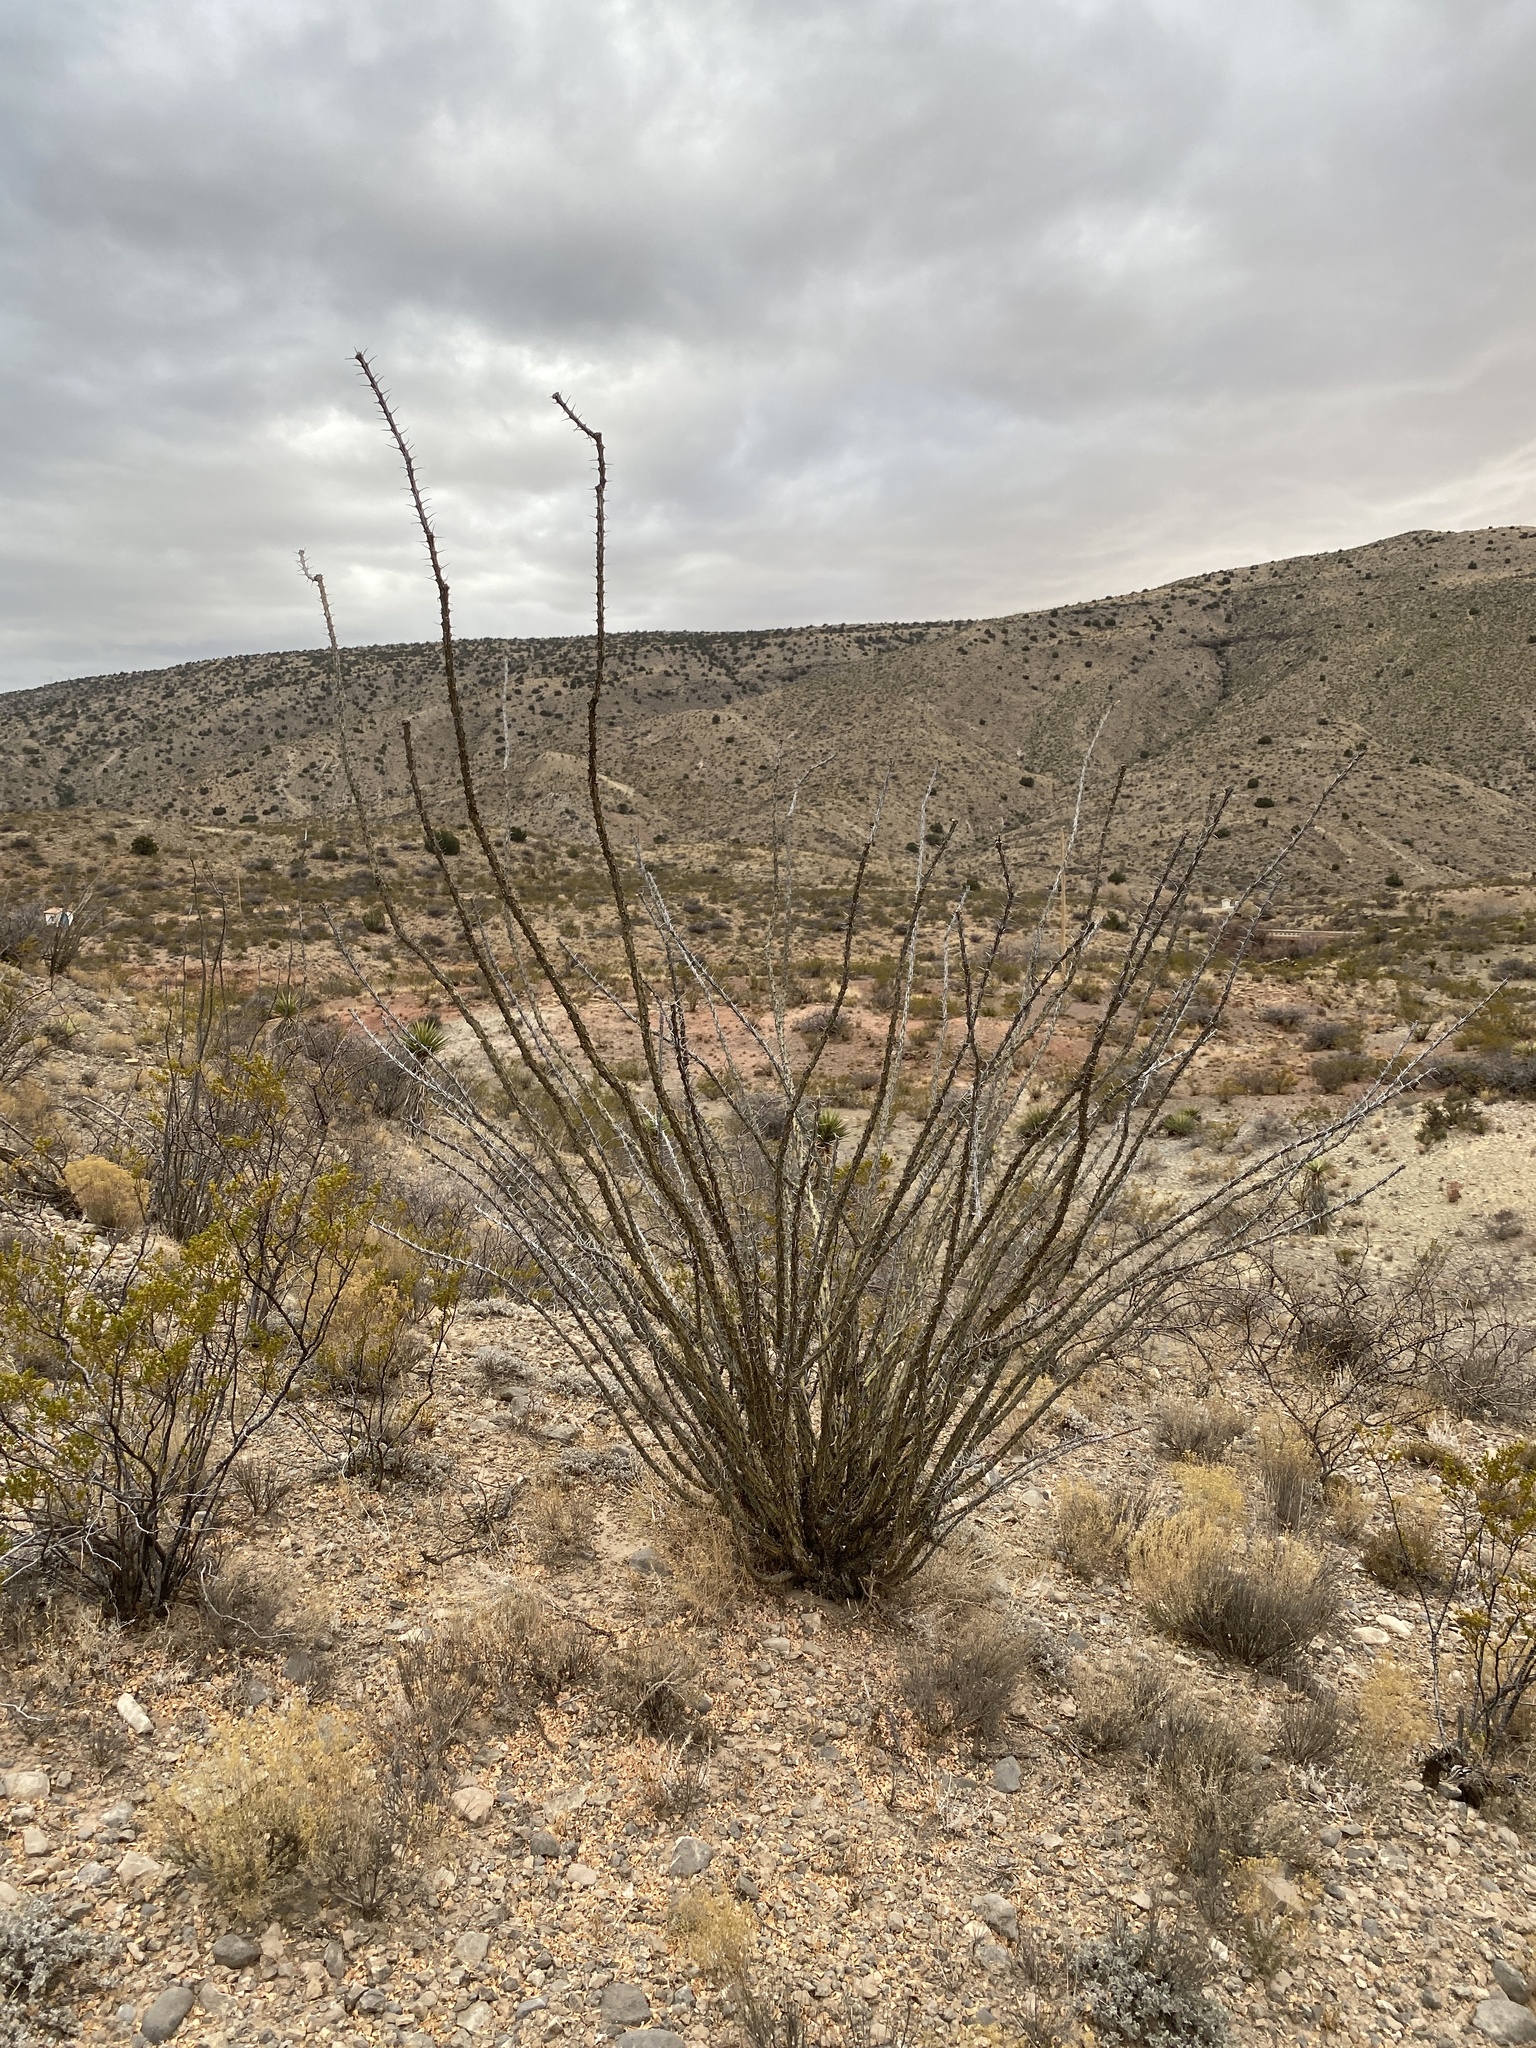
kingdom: Plantae
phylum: Tracheophyta
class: Magnoliopsida
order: Ericales
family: Fouquieriaceae
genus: Fouquieria
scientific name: Fouquieria splendens
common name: Vine-cactus
